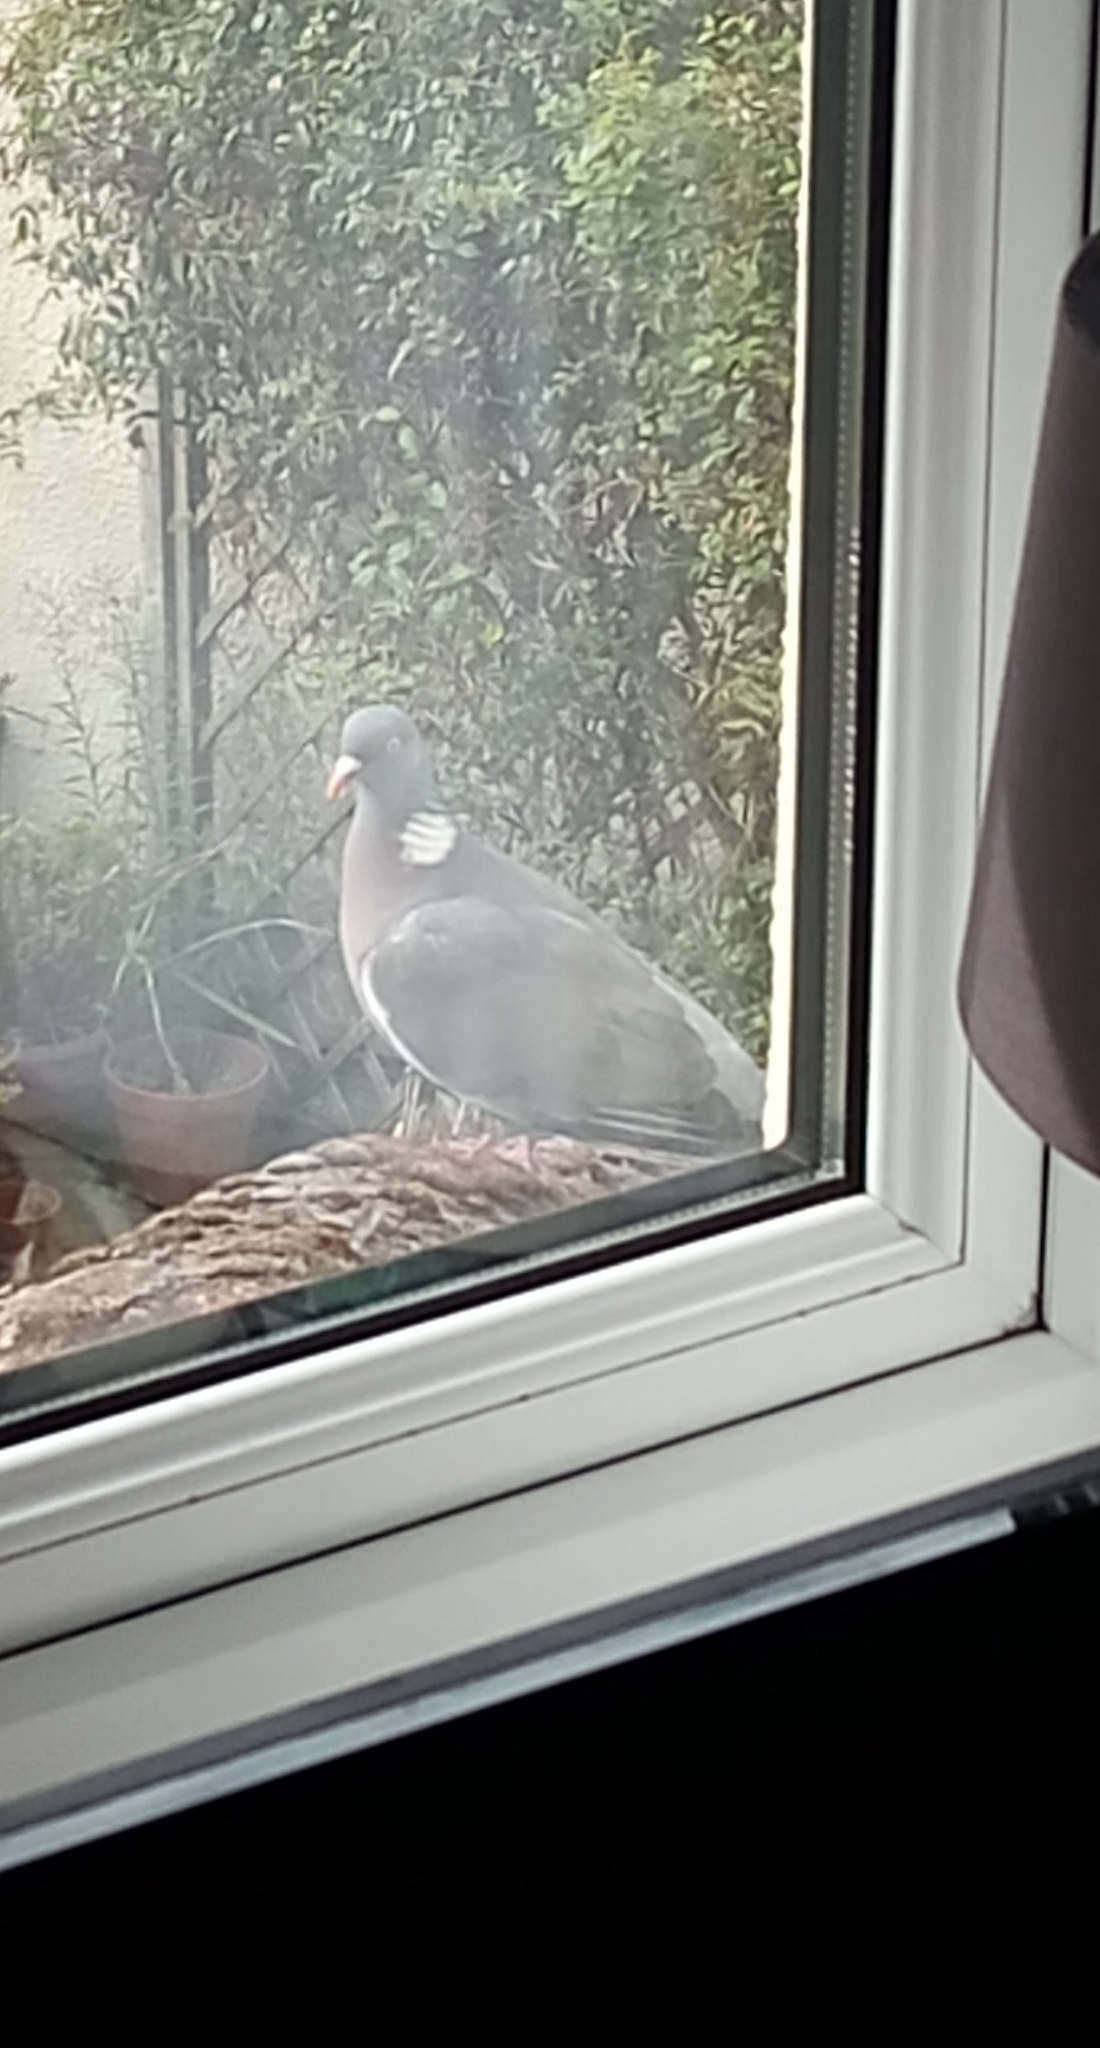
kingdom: Animalia
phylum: Chordata
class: Aves
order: Columbiformes
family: Columbidae
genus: Columba
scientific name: Columba palumbus
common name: Common wood pigeon
